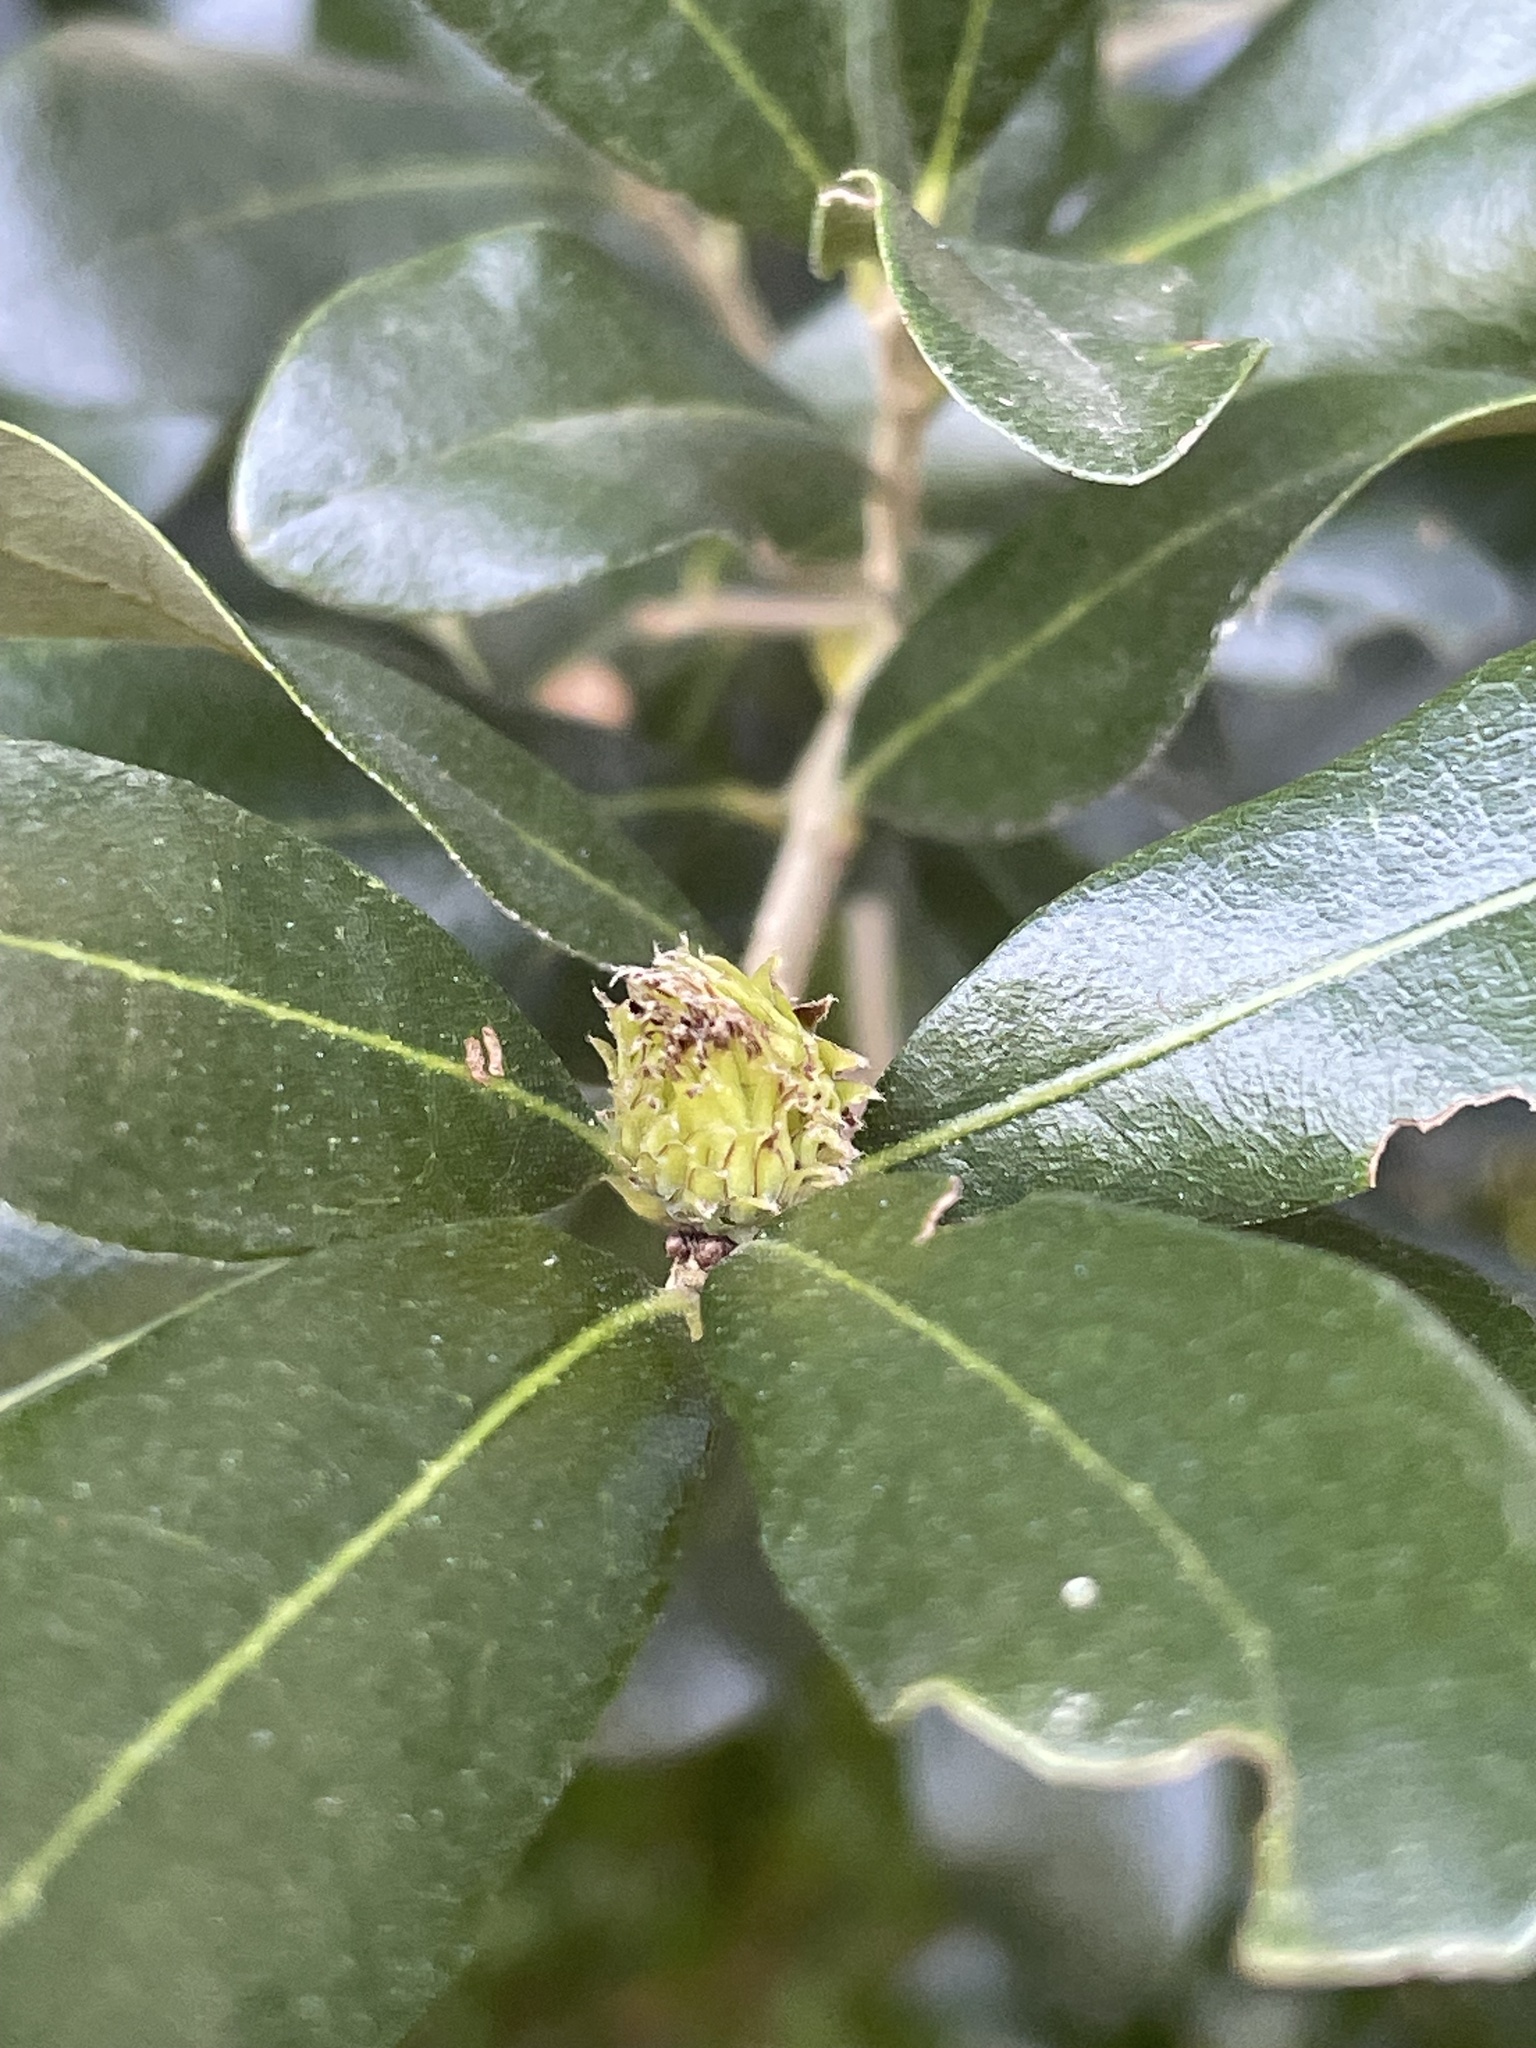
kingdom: Animalia
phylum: Arthropoda
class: Insecta
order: Hymenoptera
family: Cynipidae
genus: Andricus
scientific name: Andricus quercusfoliatus
